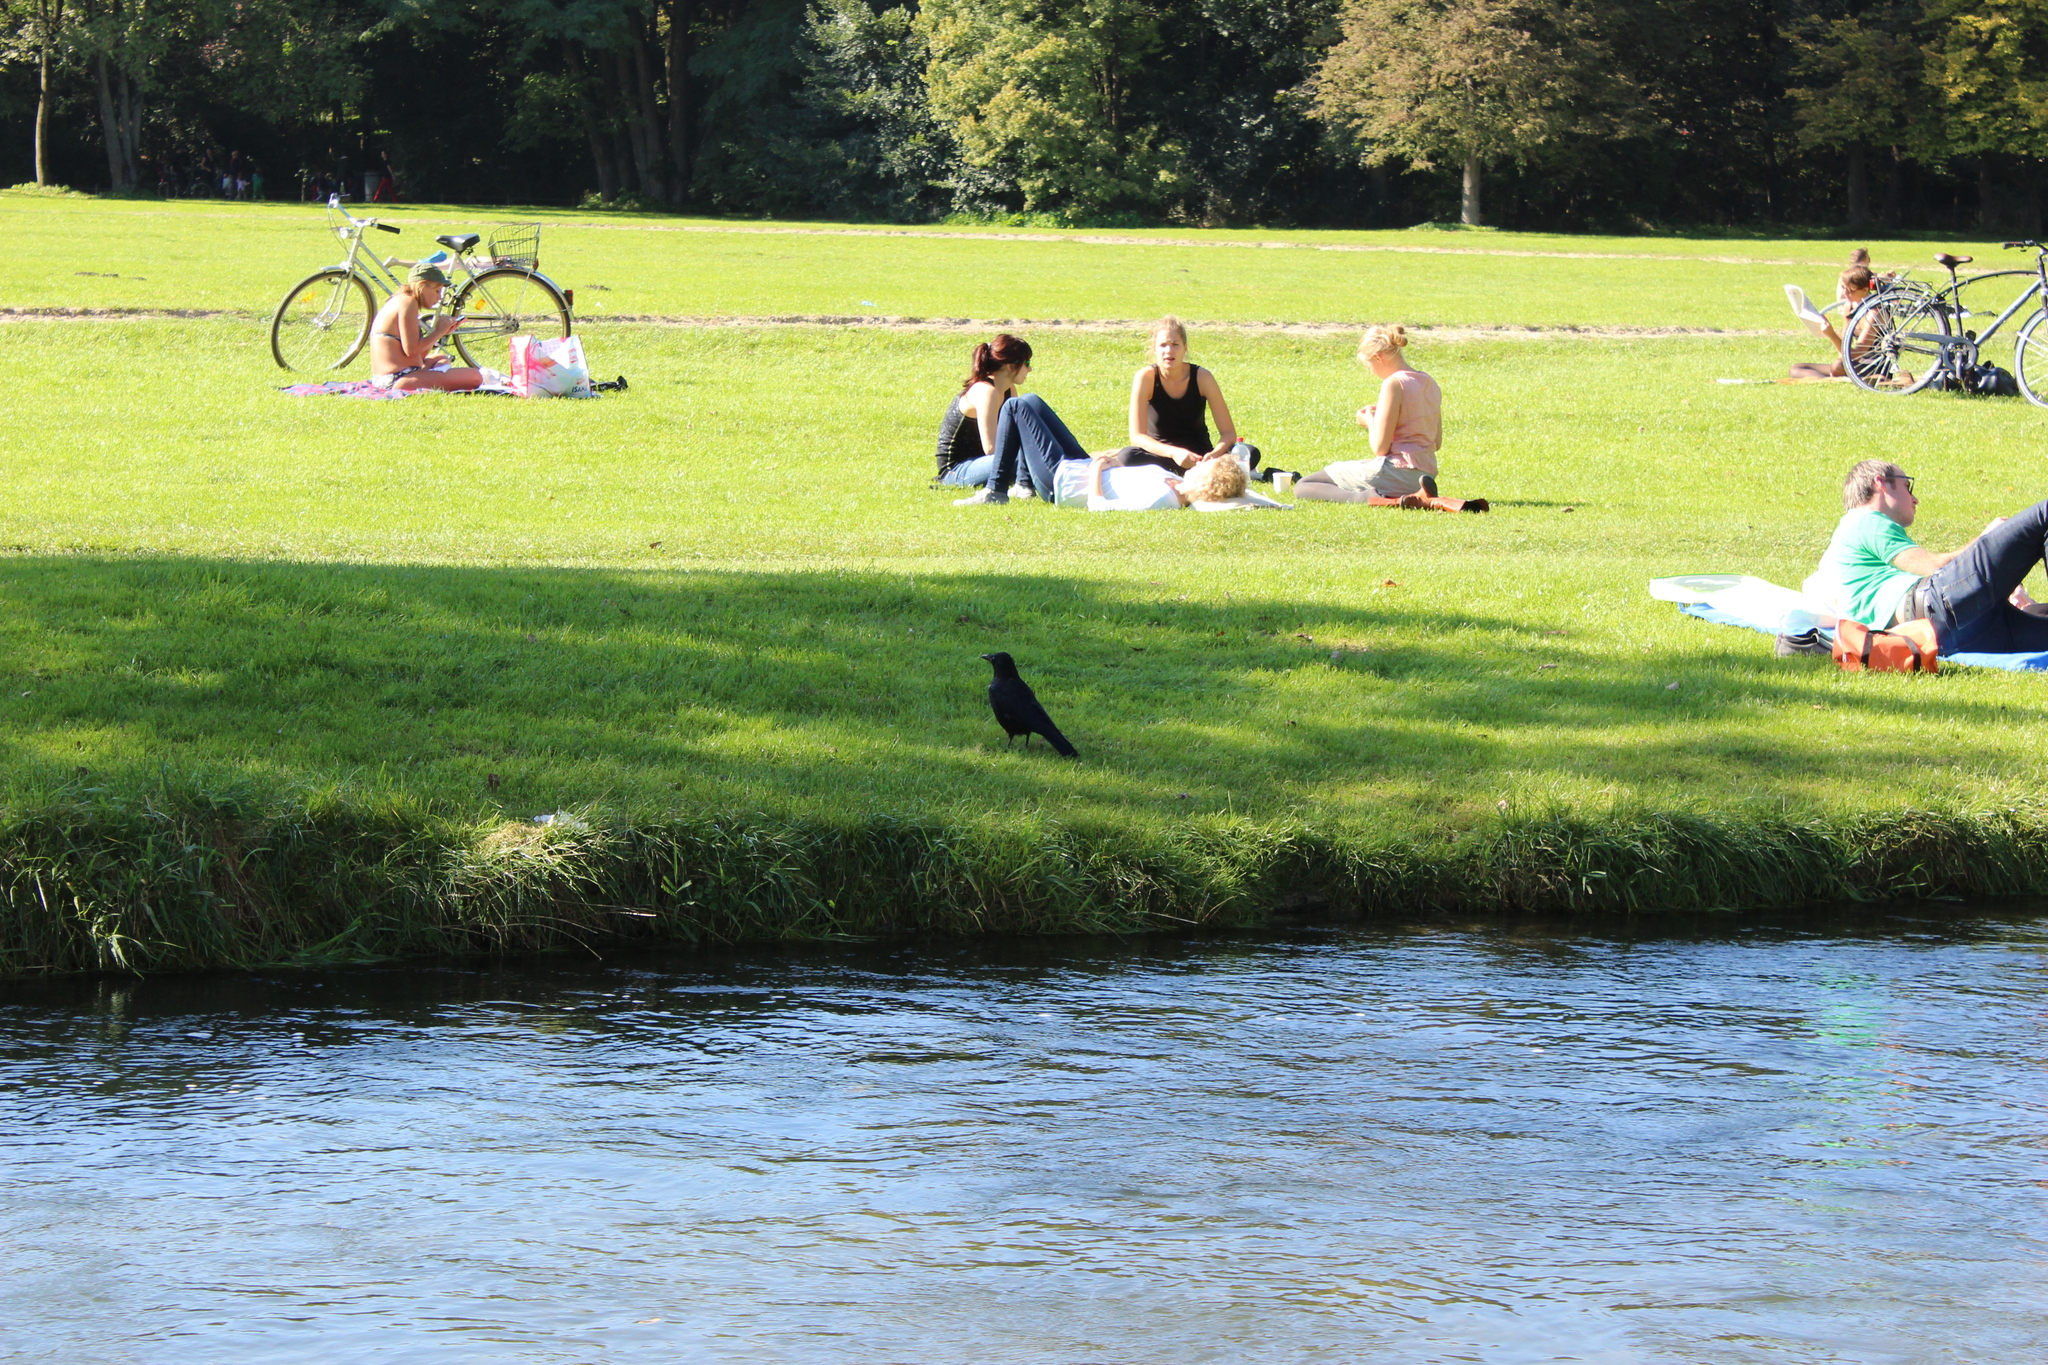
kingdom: Animalia
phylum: Chordata
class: Aves
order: Passeriformes
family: Corvidae
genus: Corvus
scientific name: Corvus corone
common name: Carrion crow
